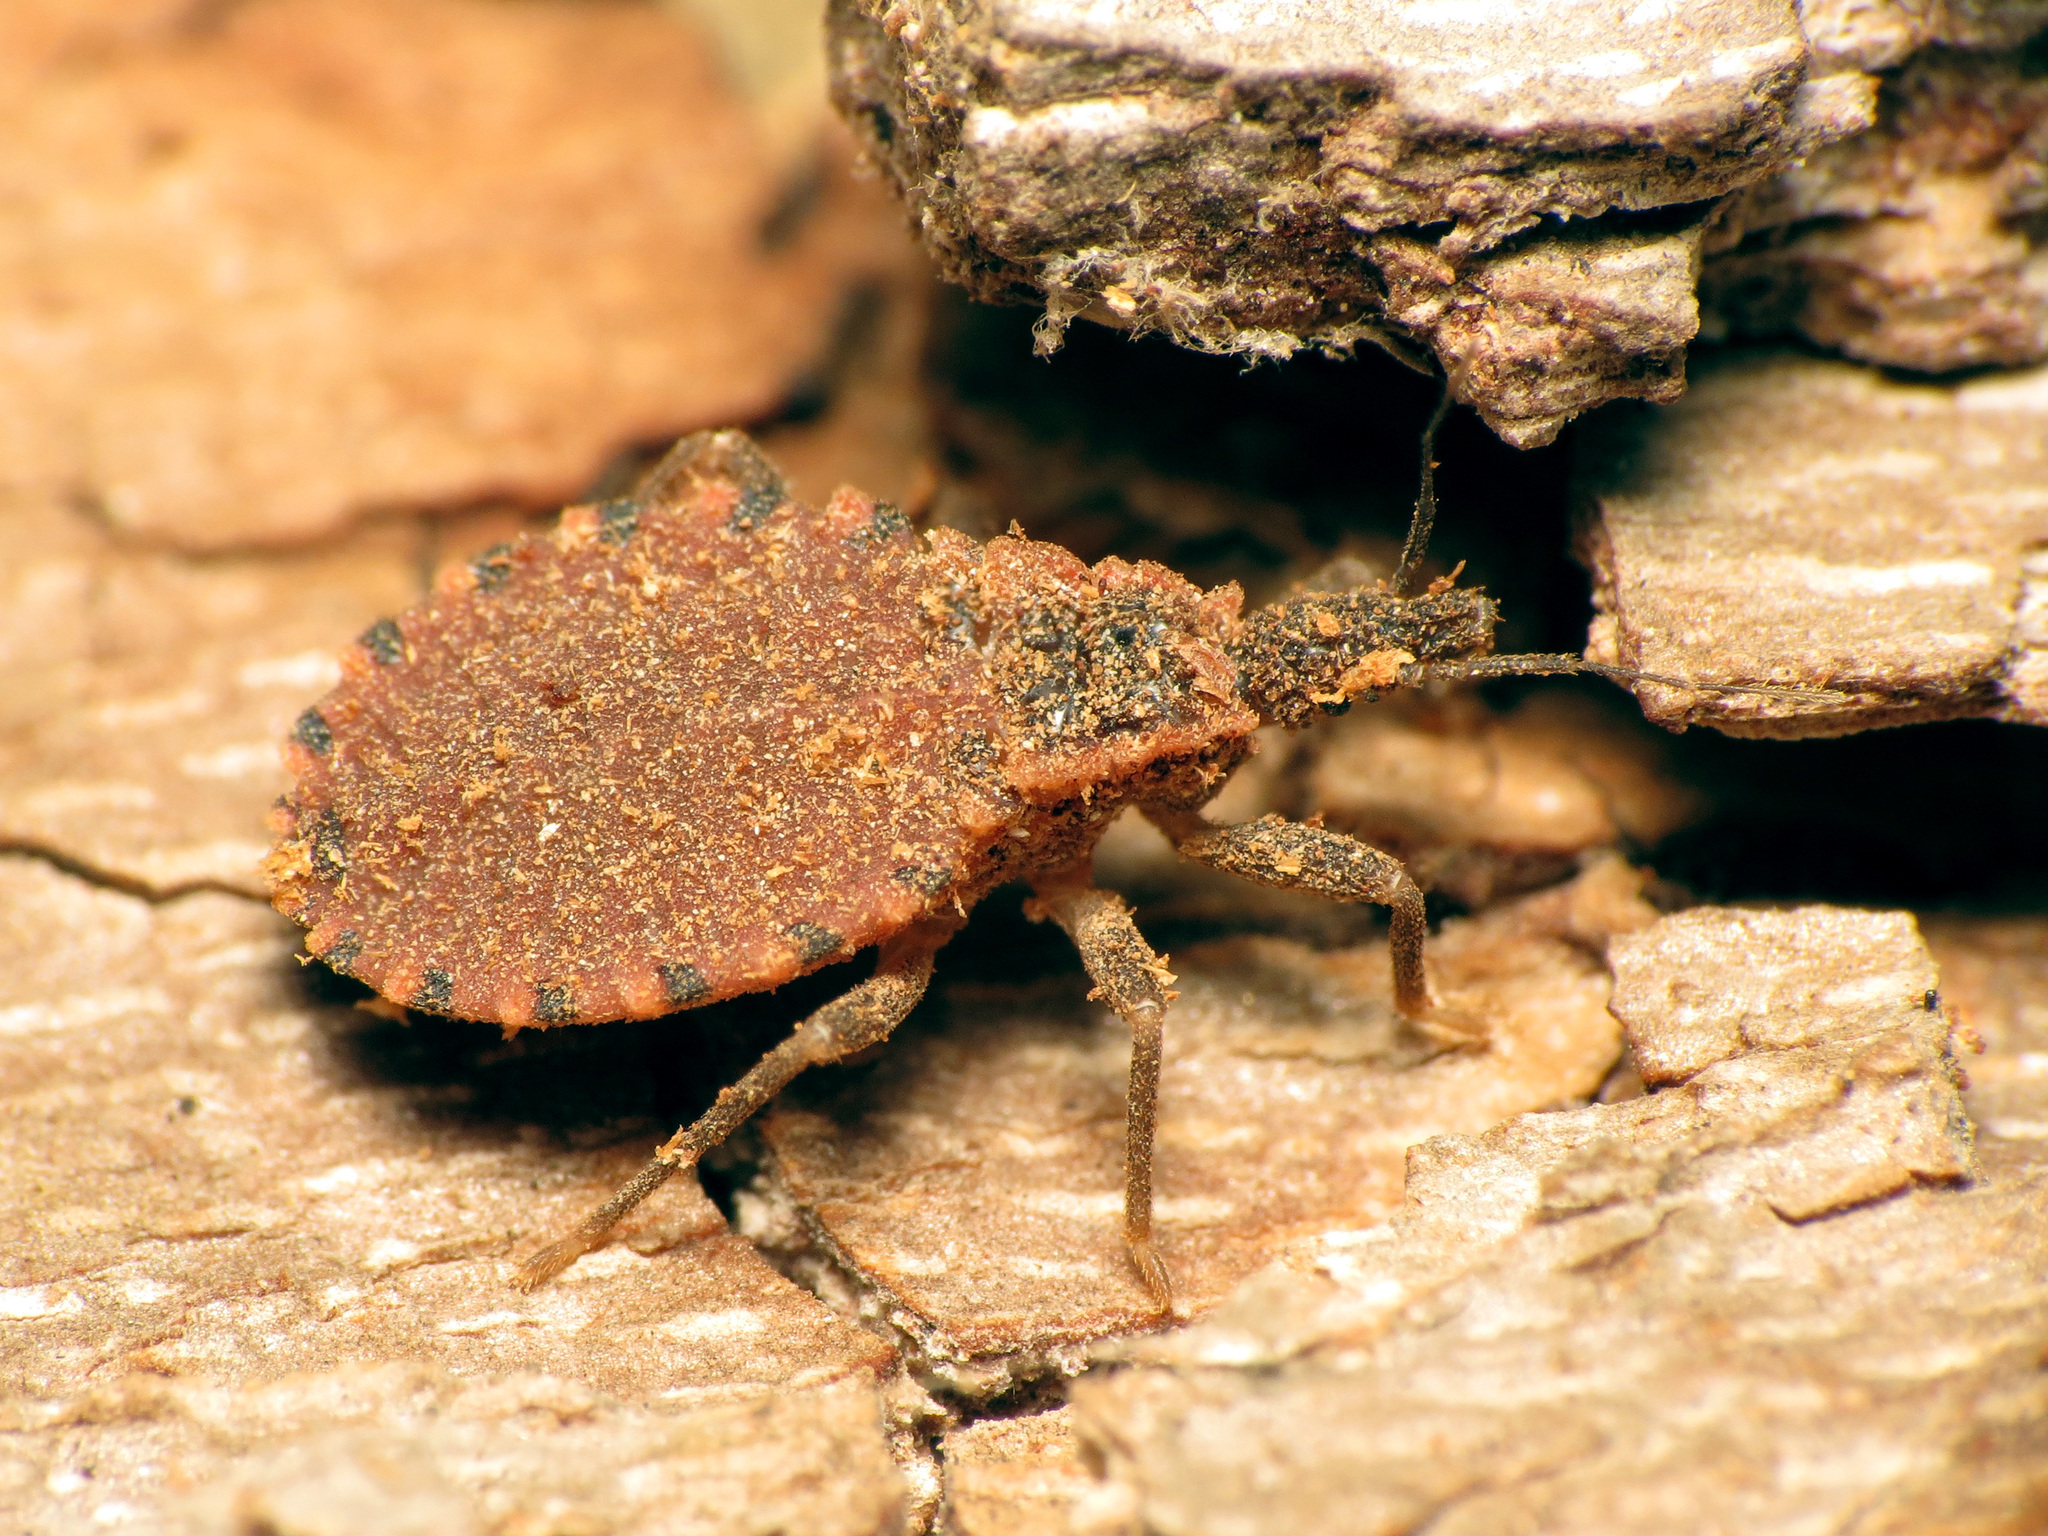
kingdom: Animalia
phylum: Arthropoda
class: Insecta
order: Hemiptera
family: Reduviidae
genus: Triatoma
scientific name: Triatoma sanguisuga
